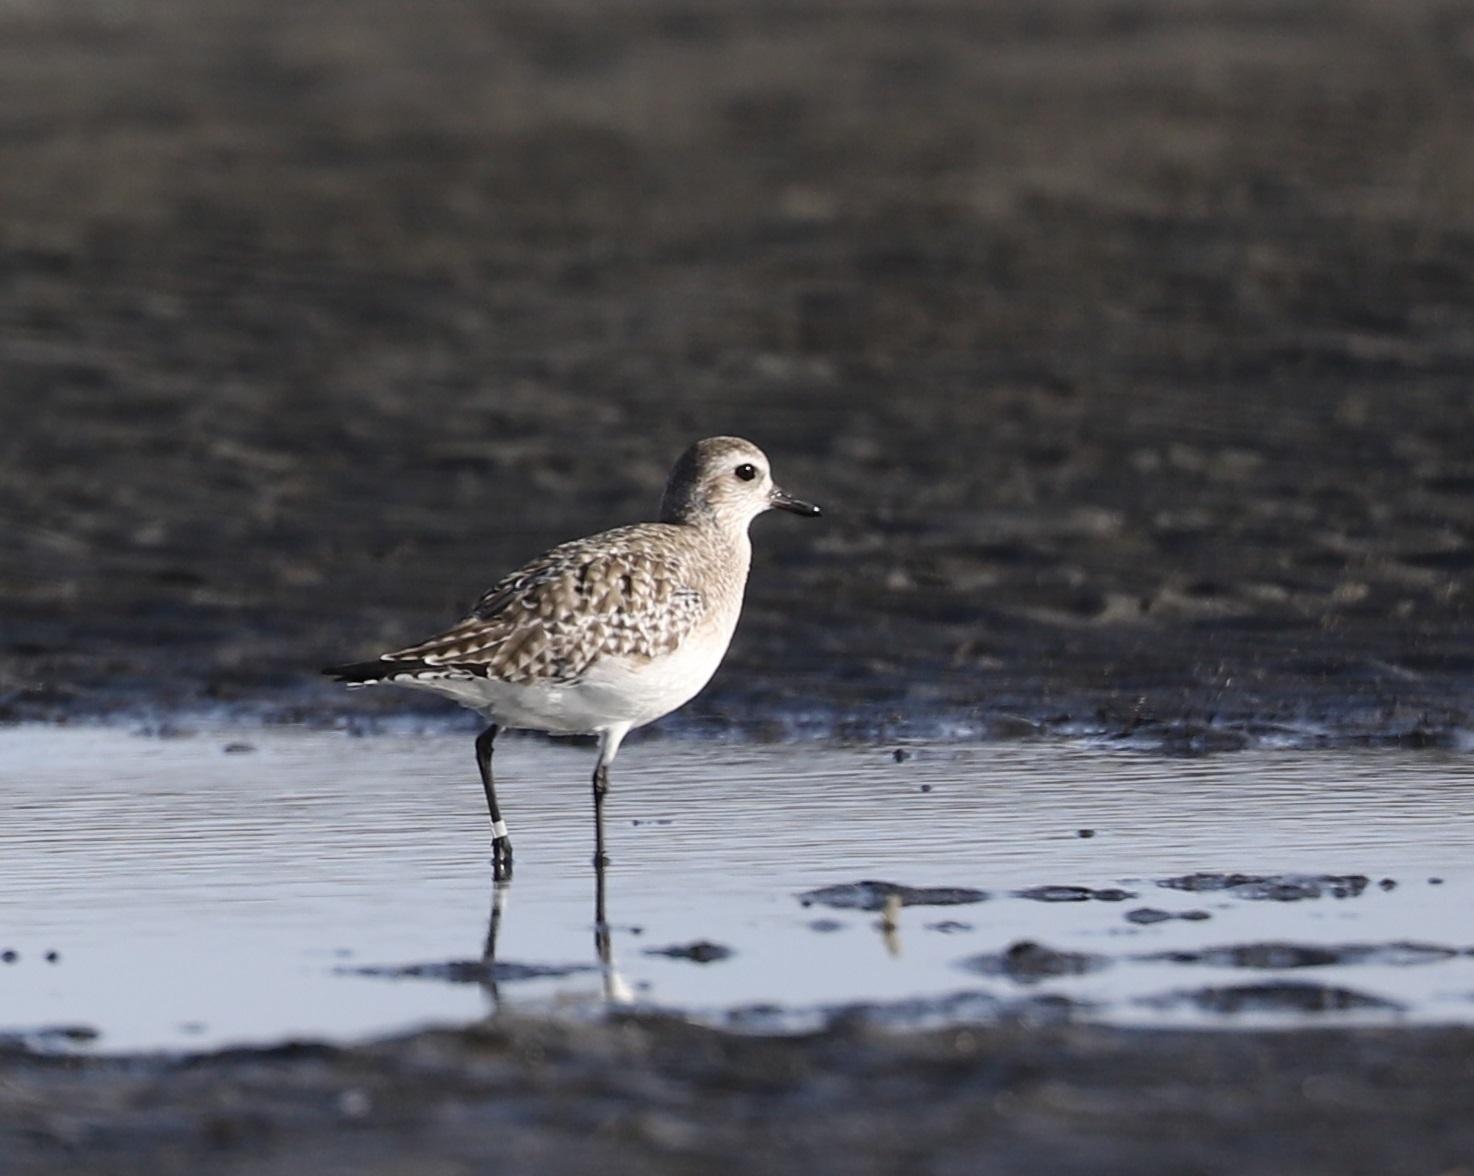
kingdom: Animalia
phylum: Chordata
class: Aves
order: Charadriiformes
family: Charadriidae
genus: Pluvialis
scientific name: Pluvialis squatarola
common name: Grey plover
